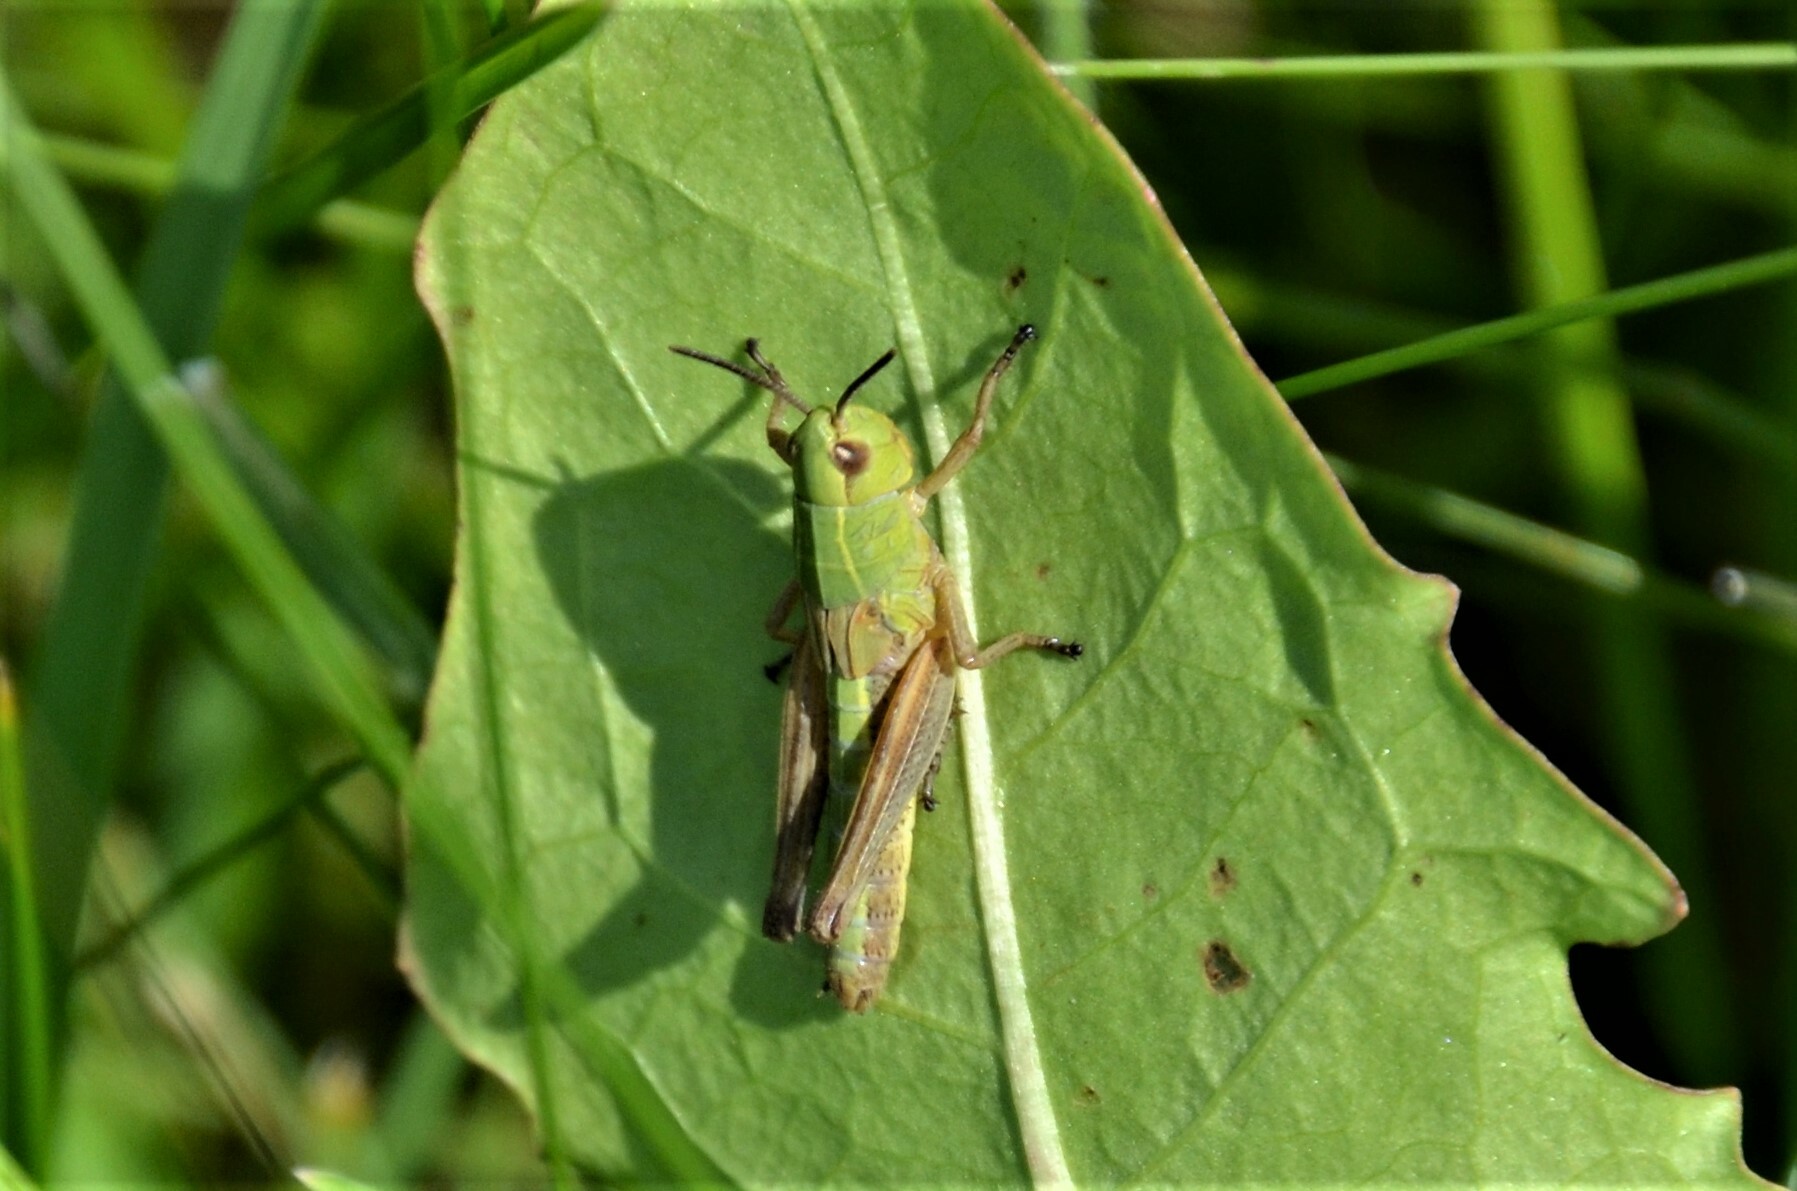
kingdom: Animalia
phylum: Arthropoda
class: Insecta
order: Orthoptera
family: Acrididae
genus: Chorthippus
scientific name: Chorthippus dorsatus
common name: Steppe grasshopper
